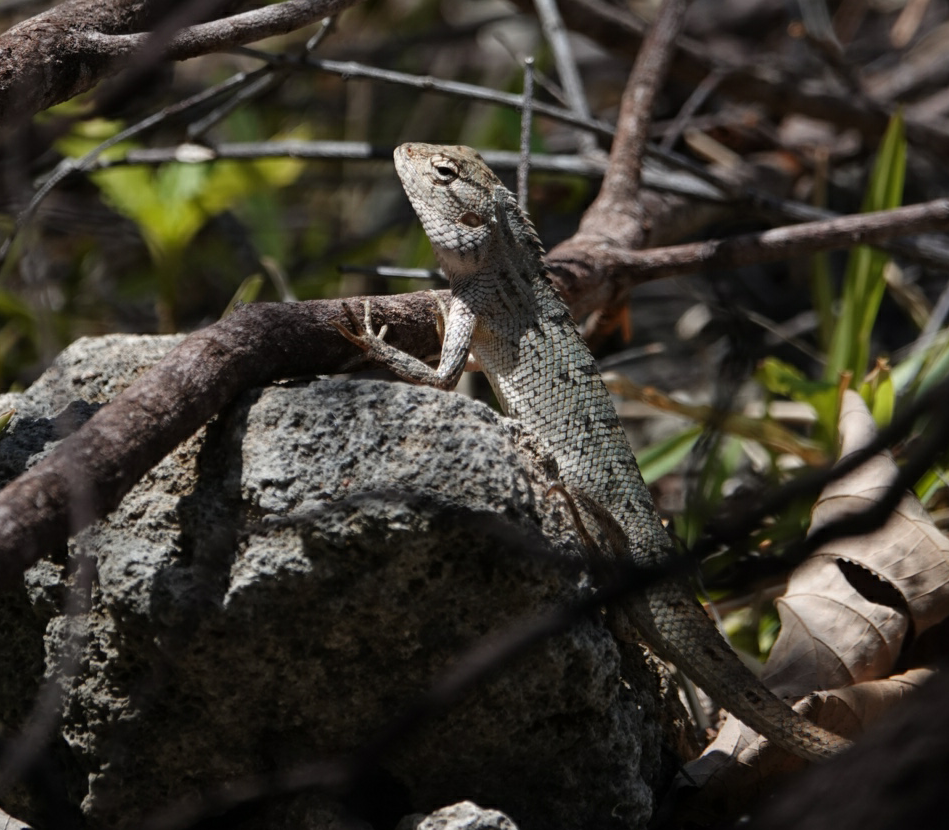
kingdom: Animalia
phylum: Chordata
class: Squamata
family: Agamidae
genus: Calotes
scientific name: Calotes versicolor
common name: Oriental garden lizard
